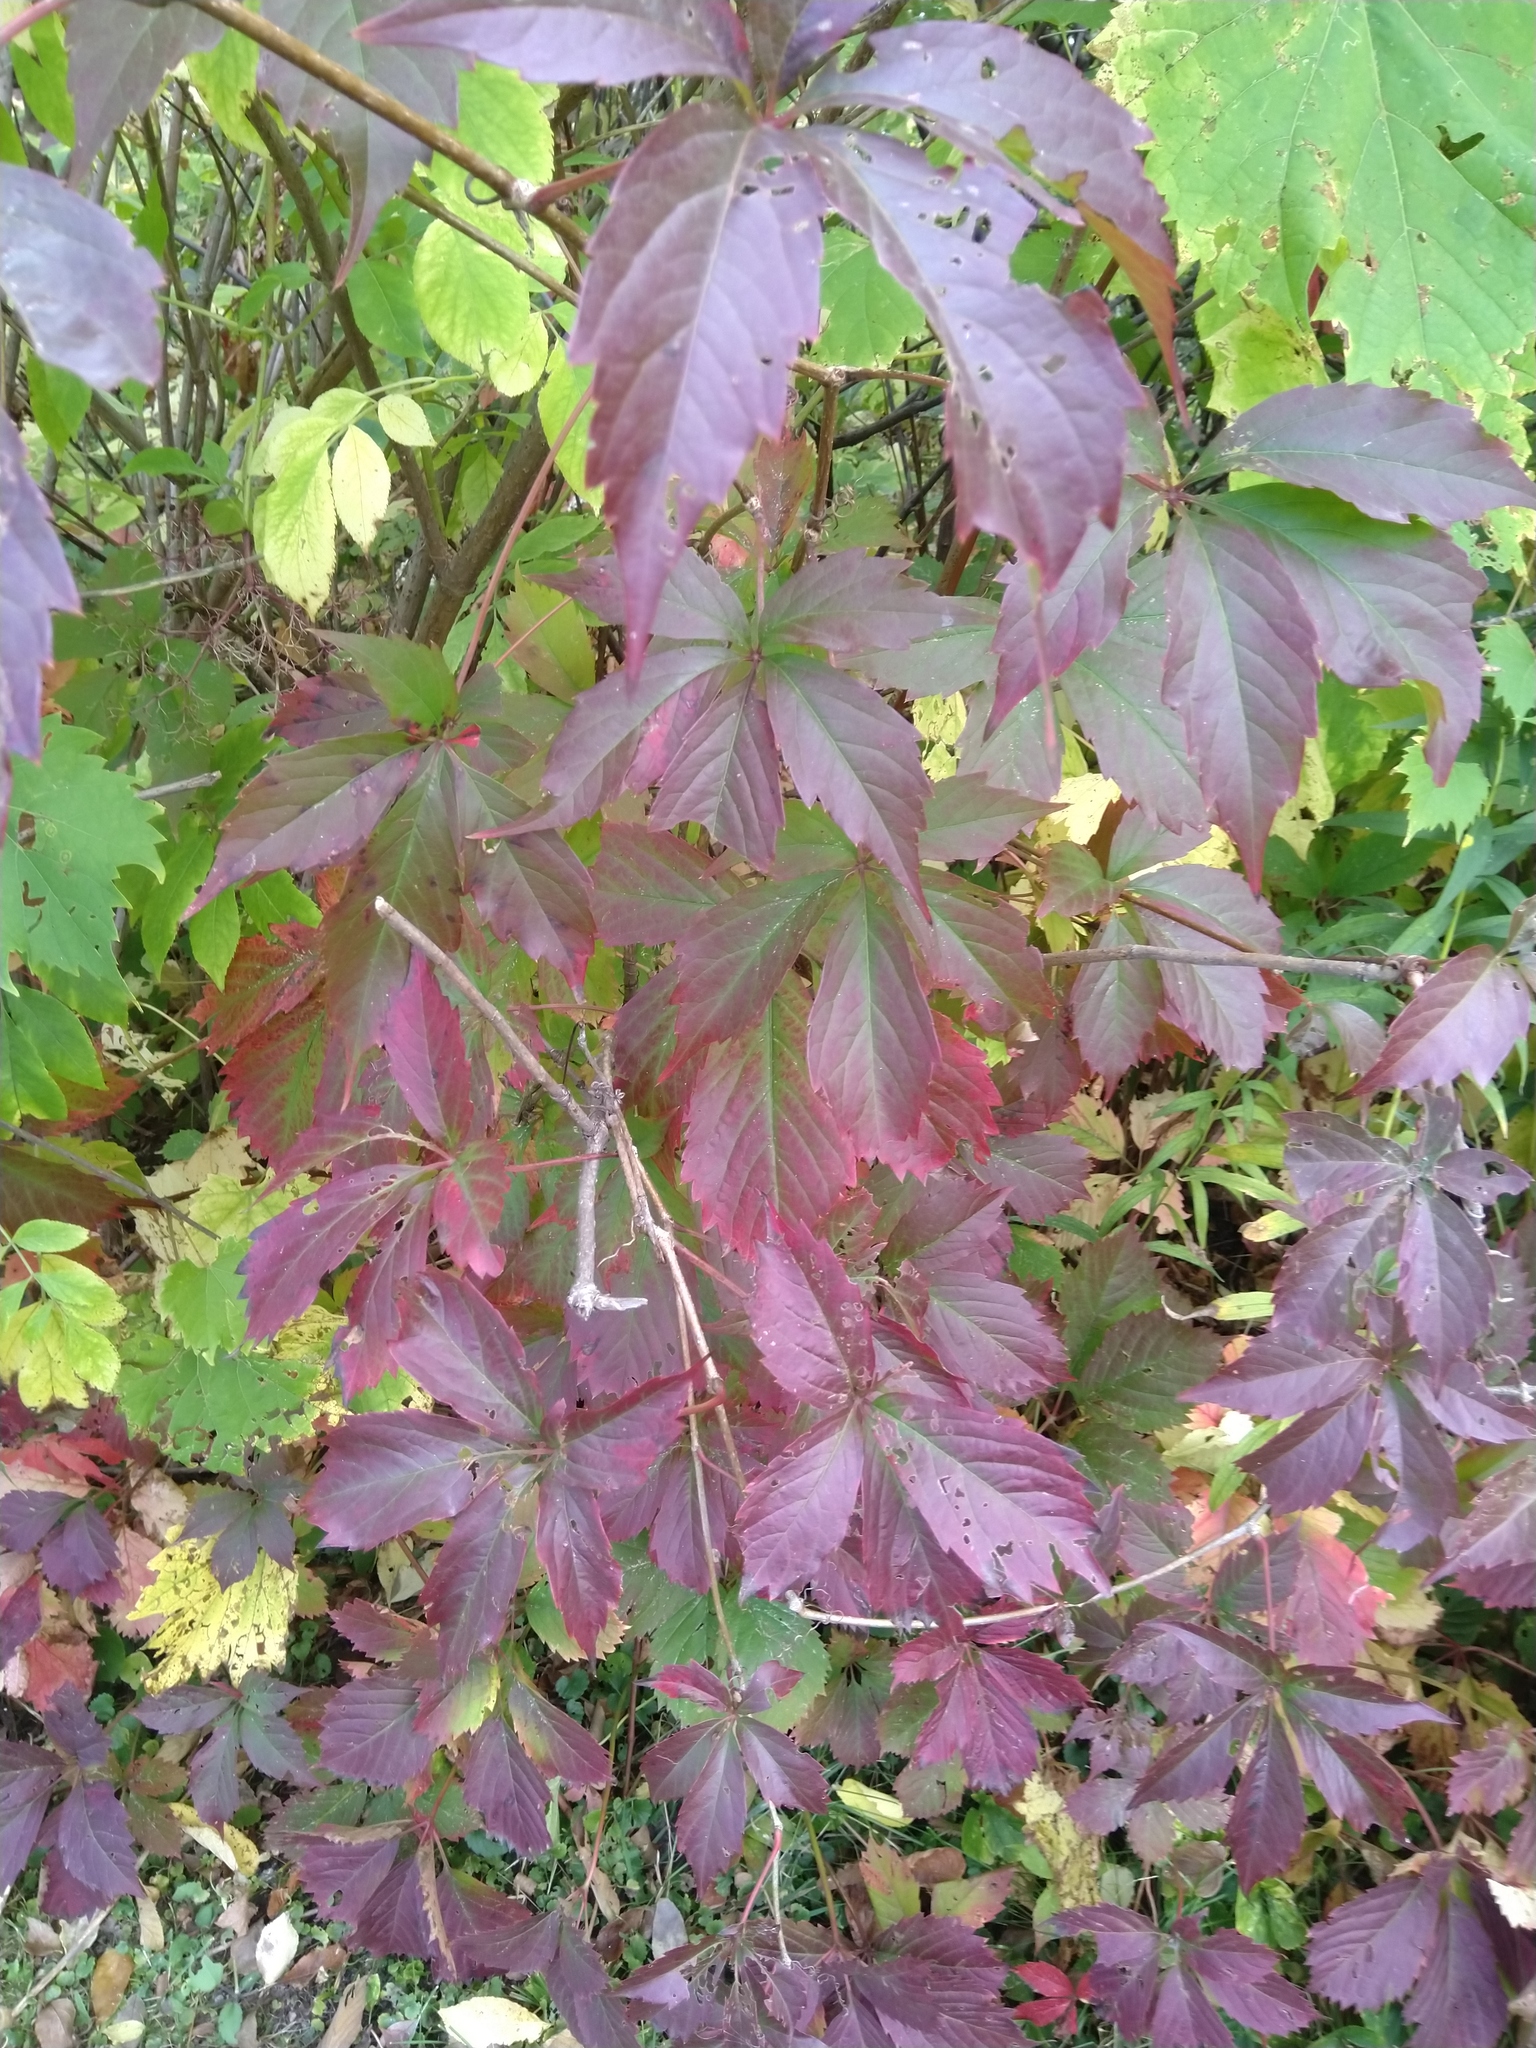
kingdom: Plantae
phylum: Tracheophyta
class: Magnoliopsida
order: Vitales
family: Vitaceae
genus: Parthenocissus
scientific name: Parthenocissus quinquefolia
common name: Virginia-creeper
